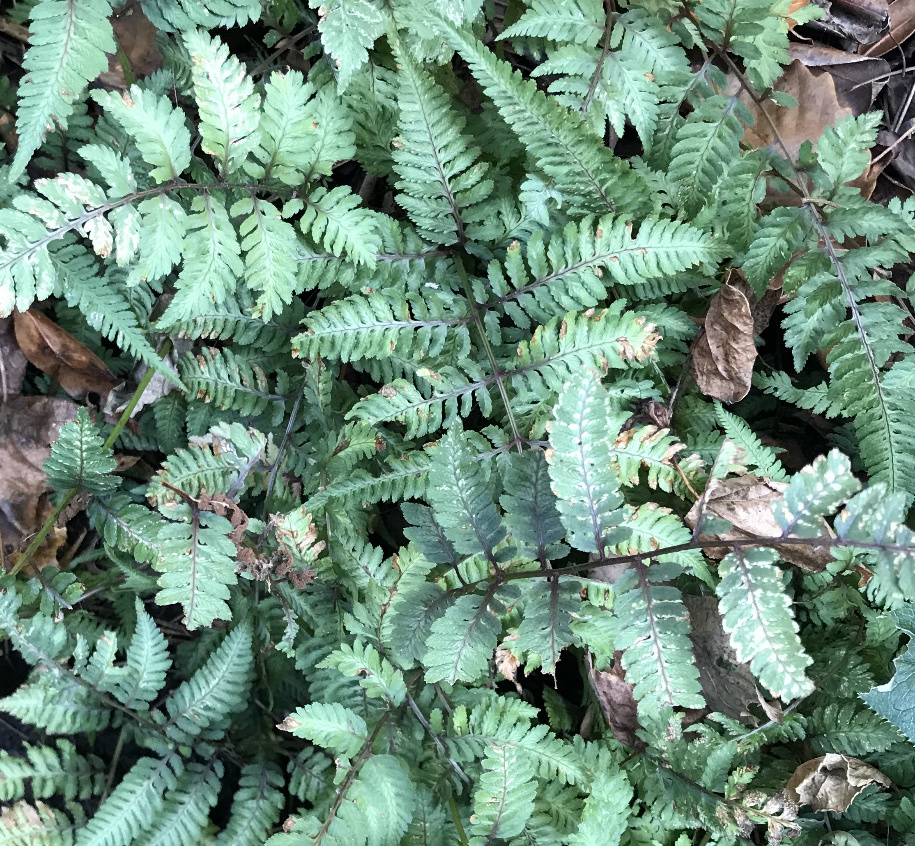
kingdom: Plantae
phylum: Tracheophyta
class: Polypodiopsida
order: Polypodiales
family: Athyriaceae
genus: Anisocampium
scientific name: Anisocampium niponicum
